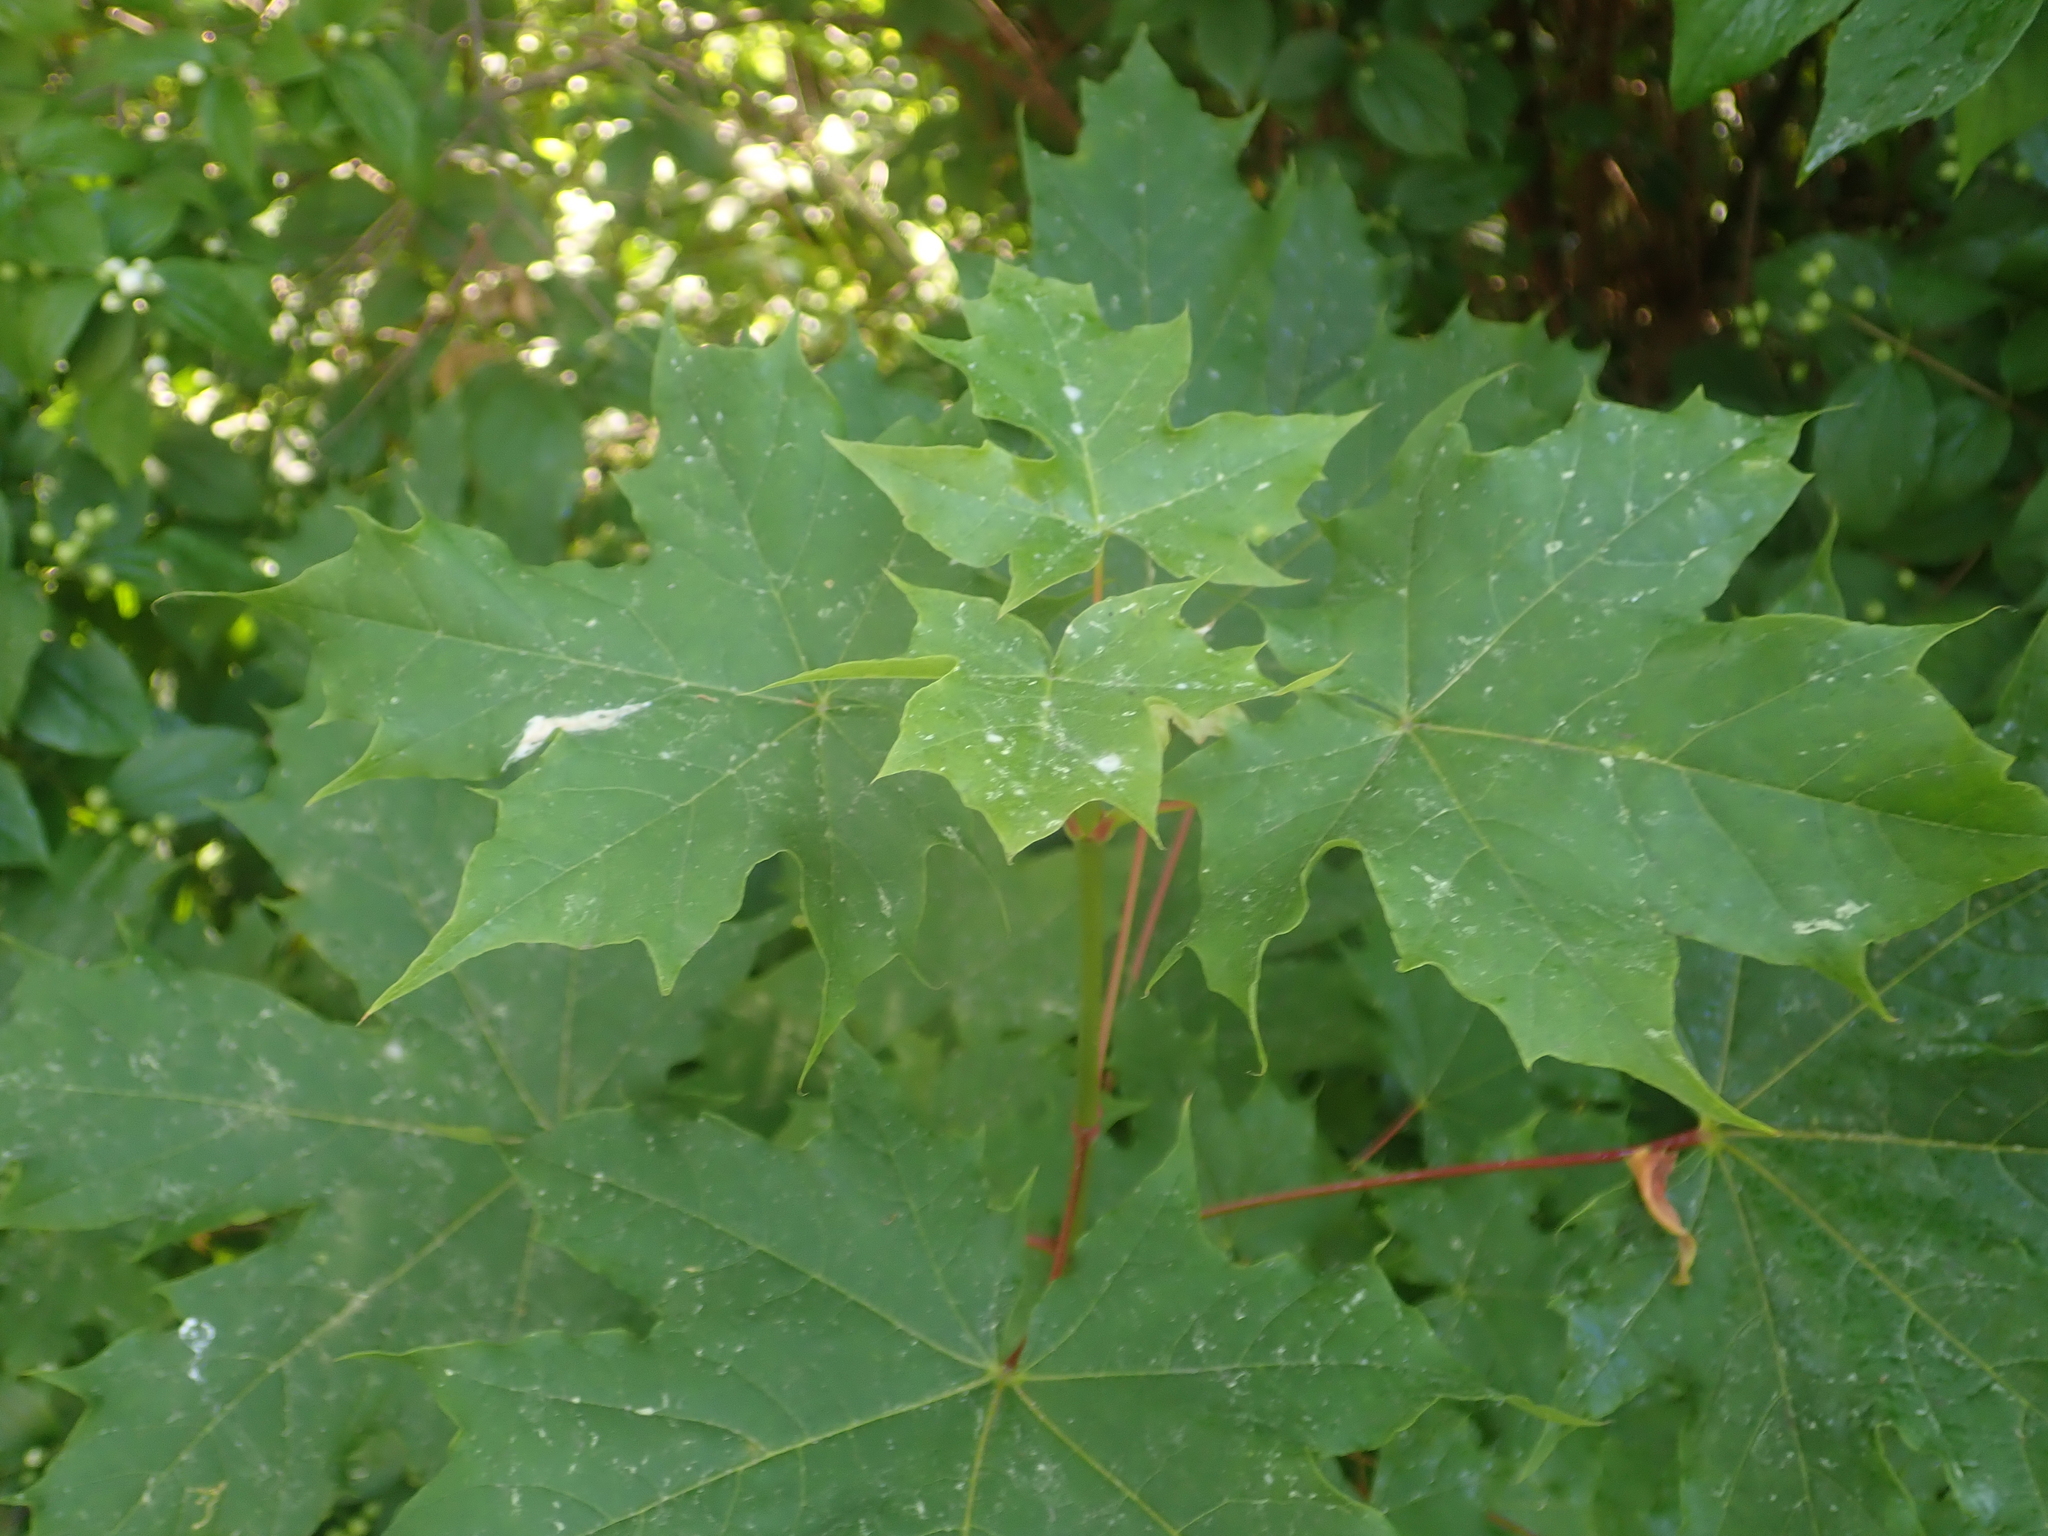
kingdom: Plantae
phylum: Tracheophyta
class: Magnoliopsida
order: Sapindales
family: Sapindaceae
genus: Acer
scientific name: Acer platanoides
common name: Norway maple
